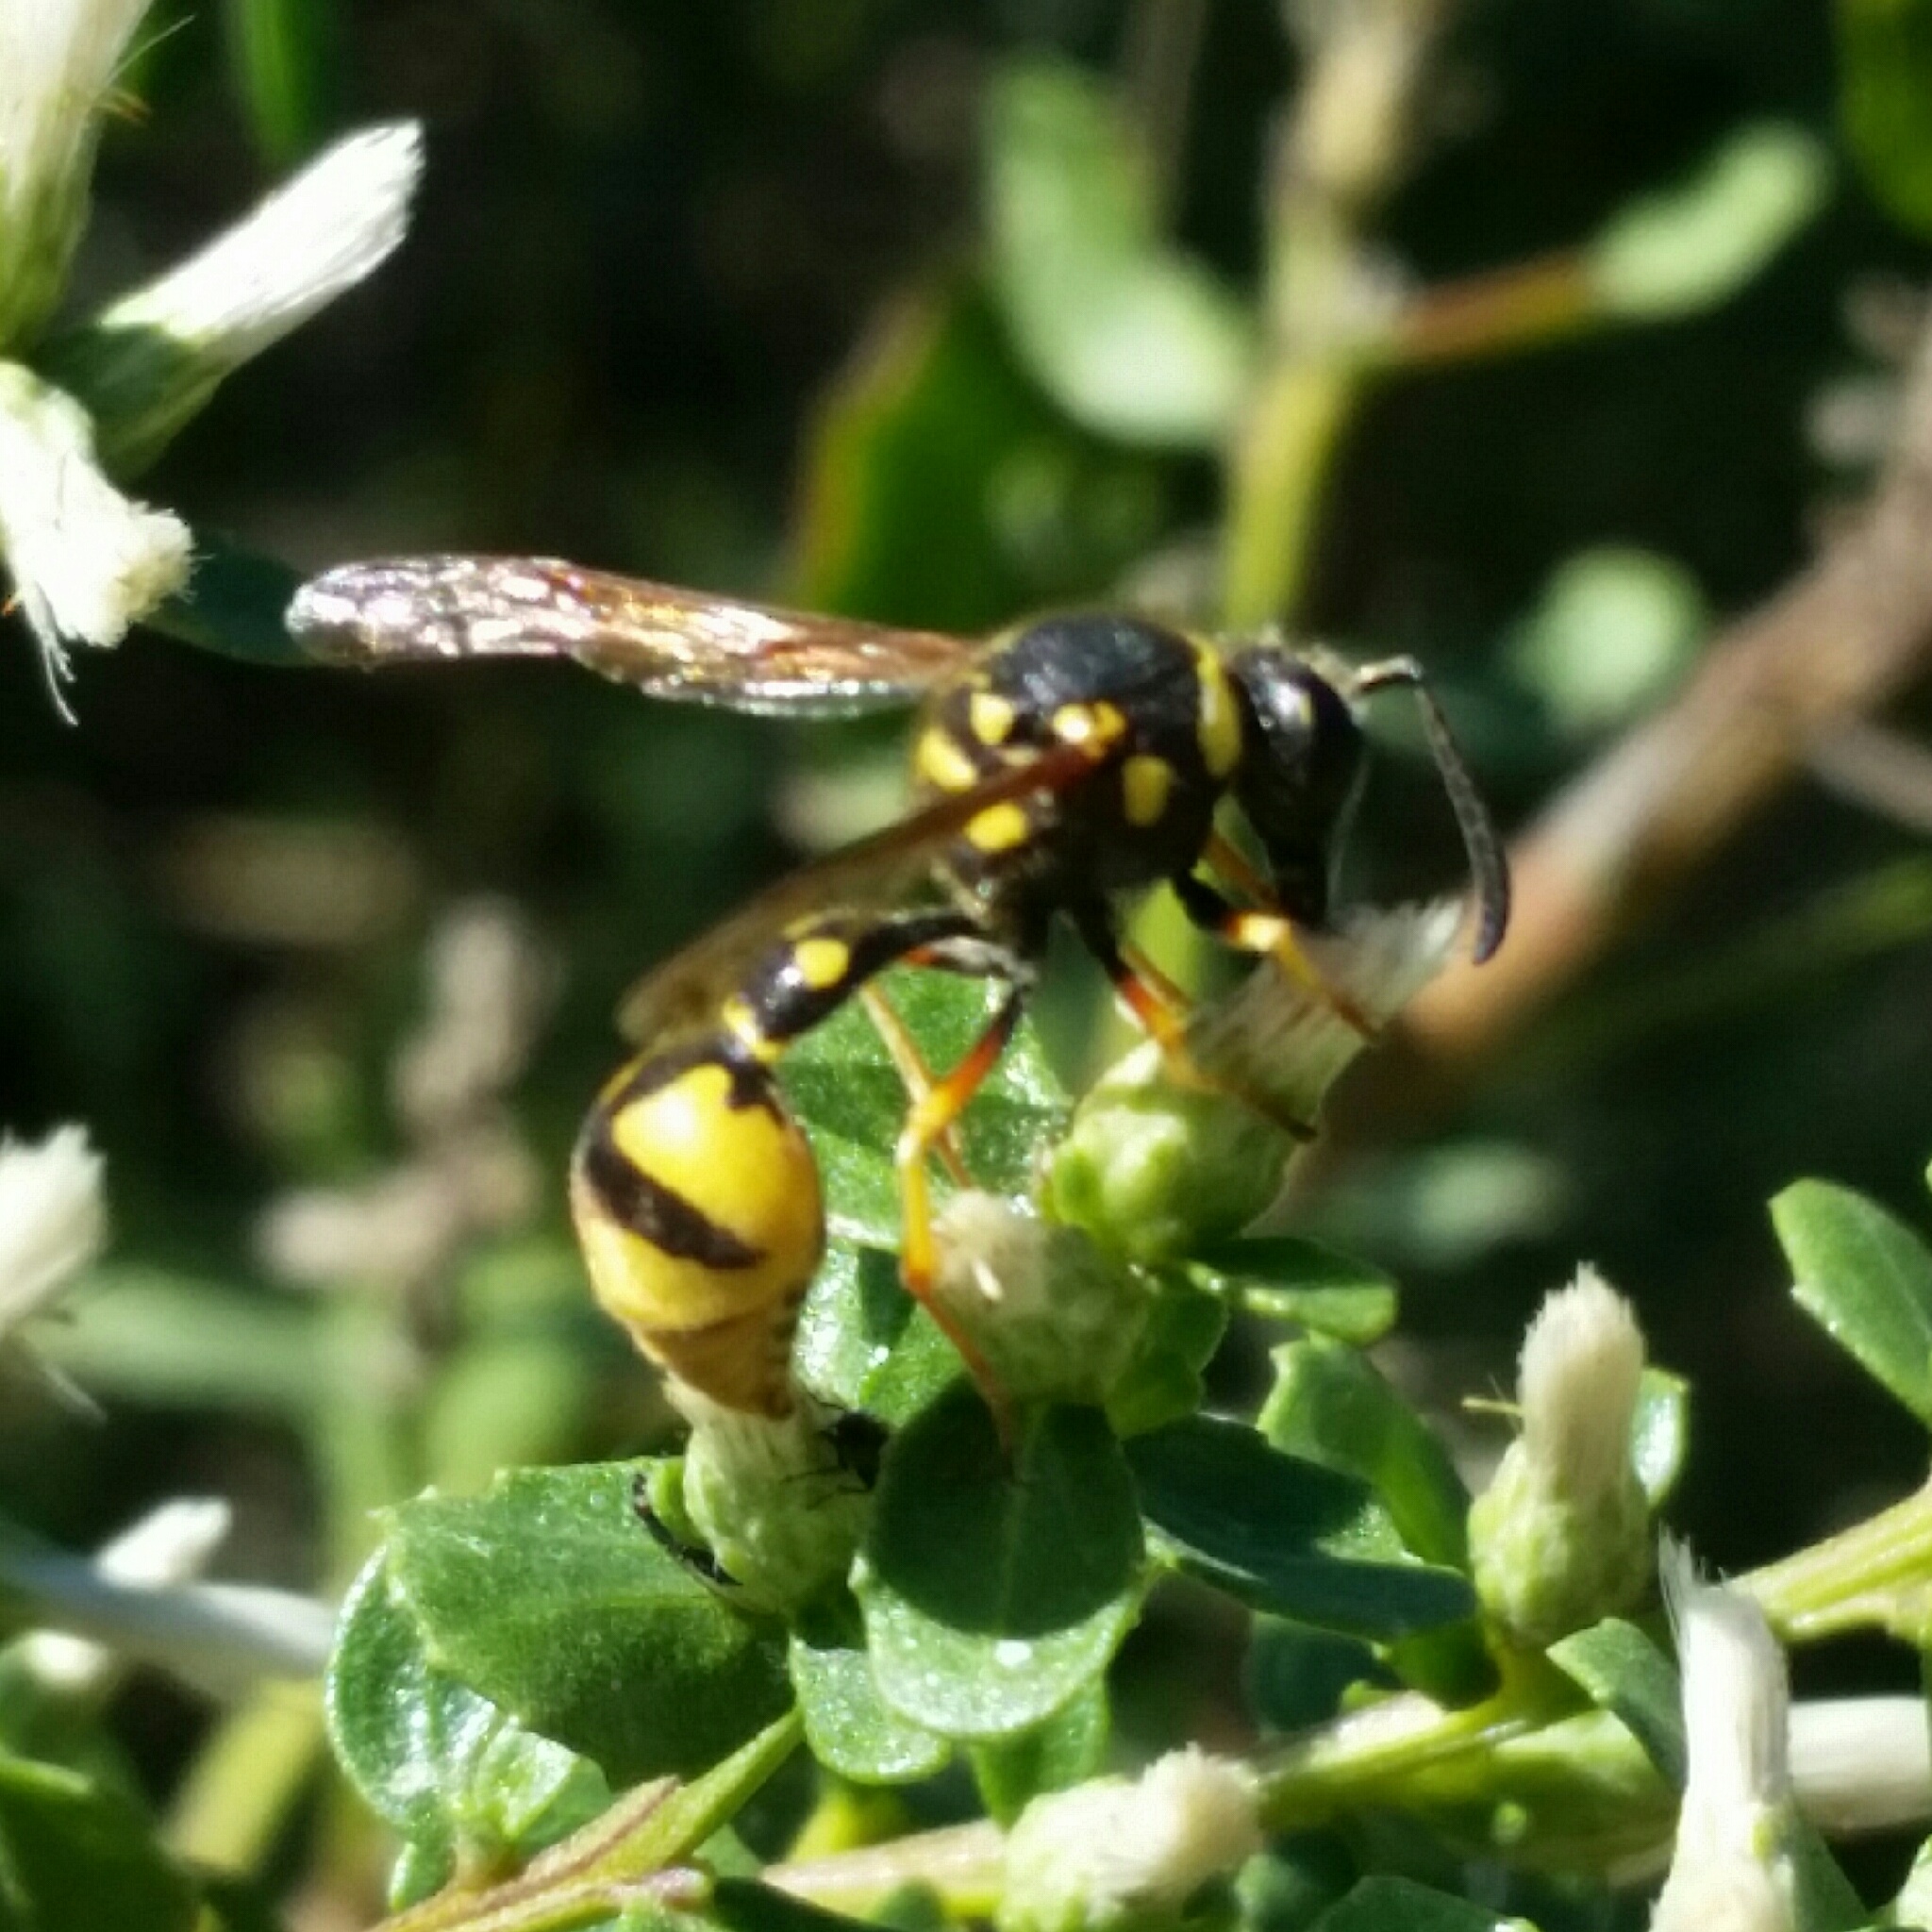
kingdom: Animalia
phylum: Arthropoda
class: Insecta
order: Hymenoptera
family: Vespidae
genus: Eumenes
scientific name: Eumenes crucifera
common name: Cross potter wasp
